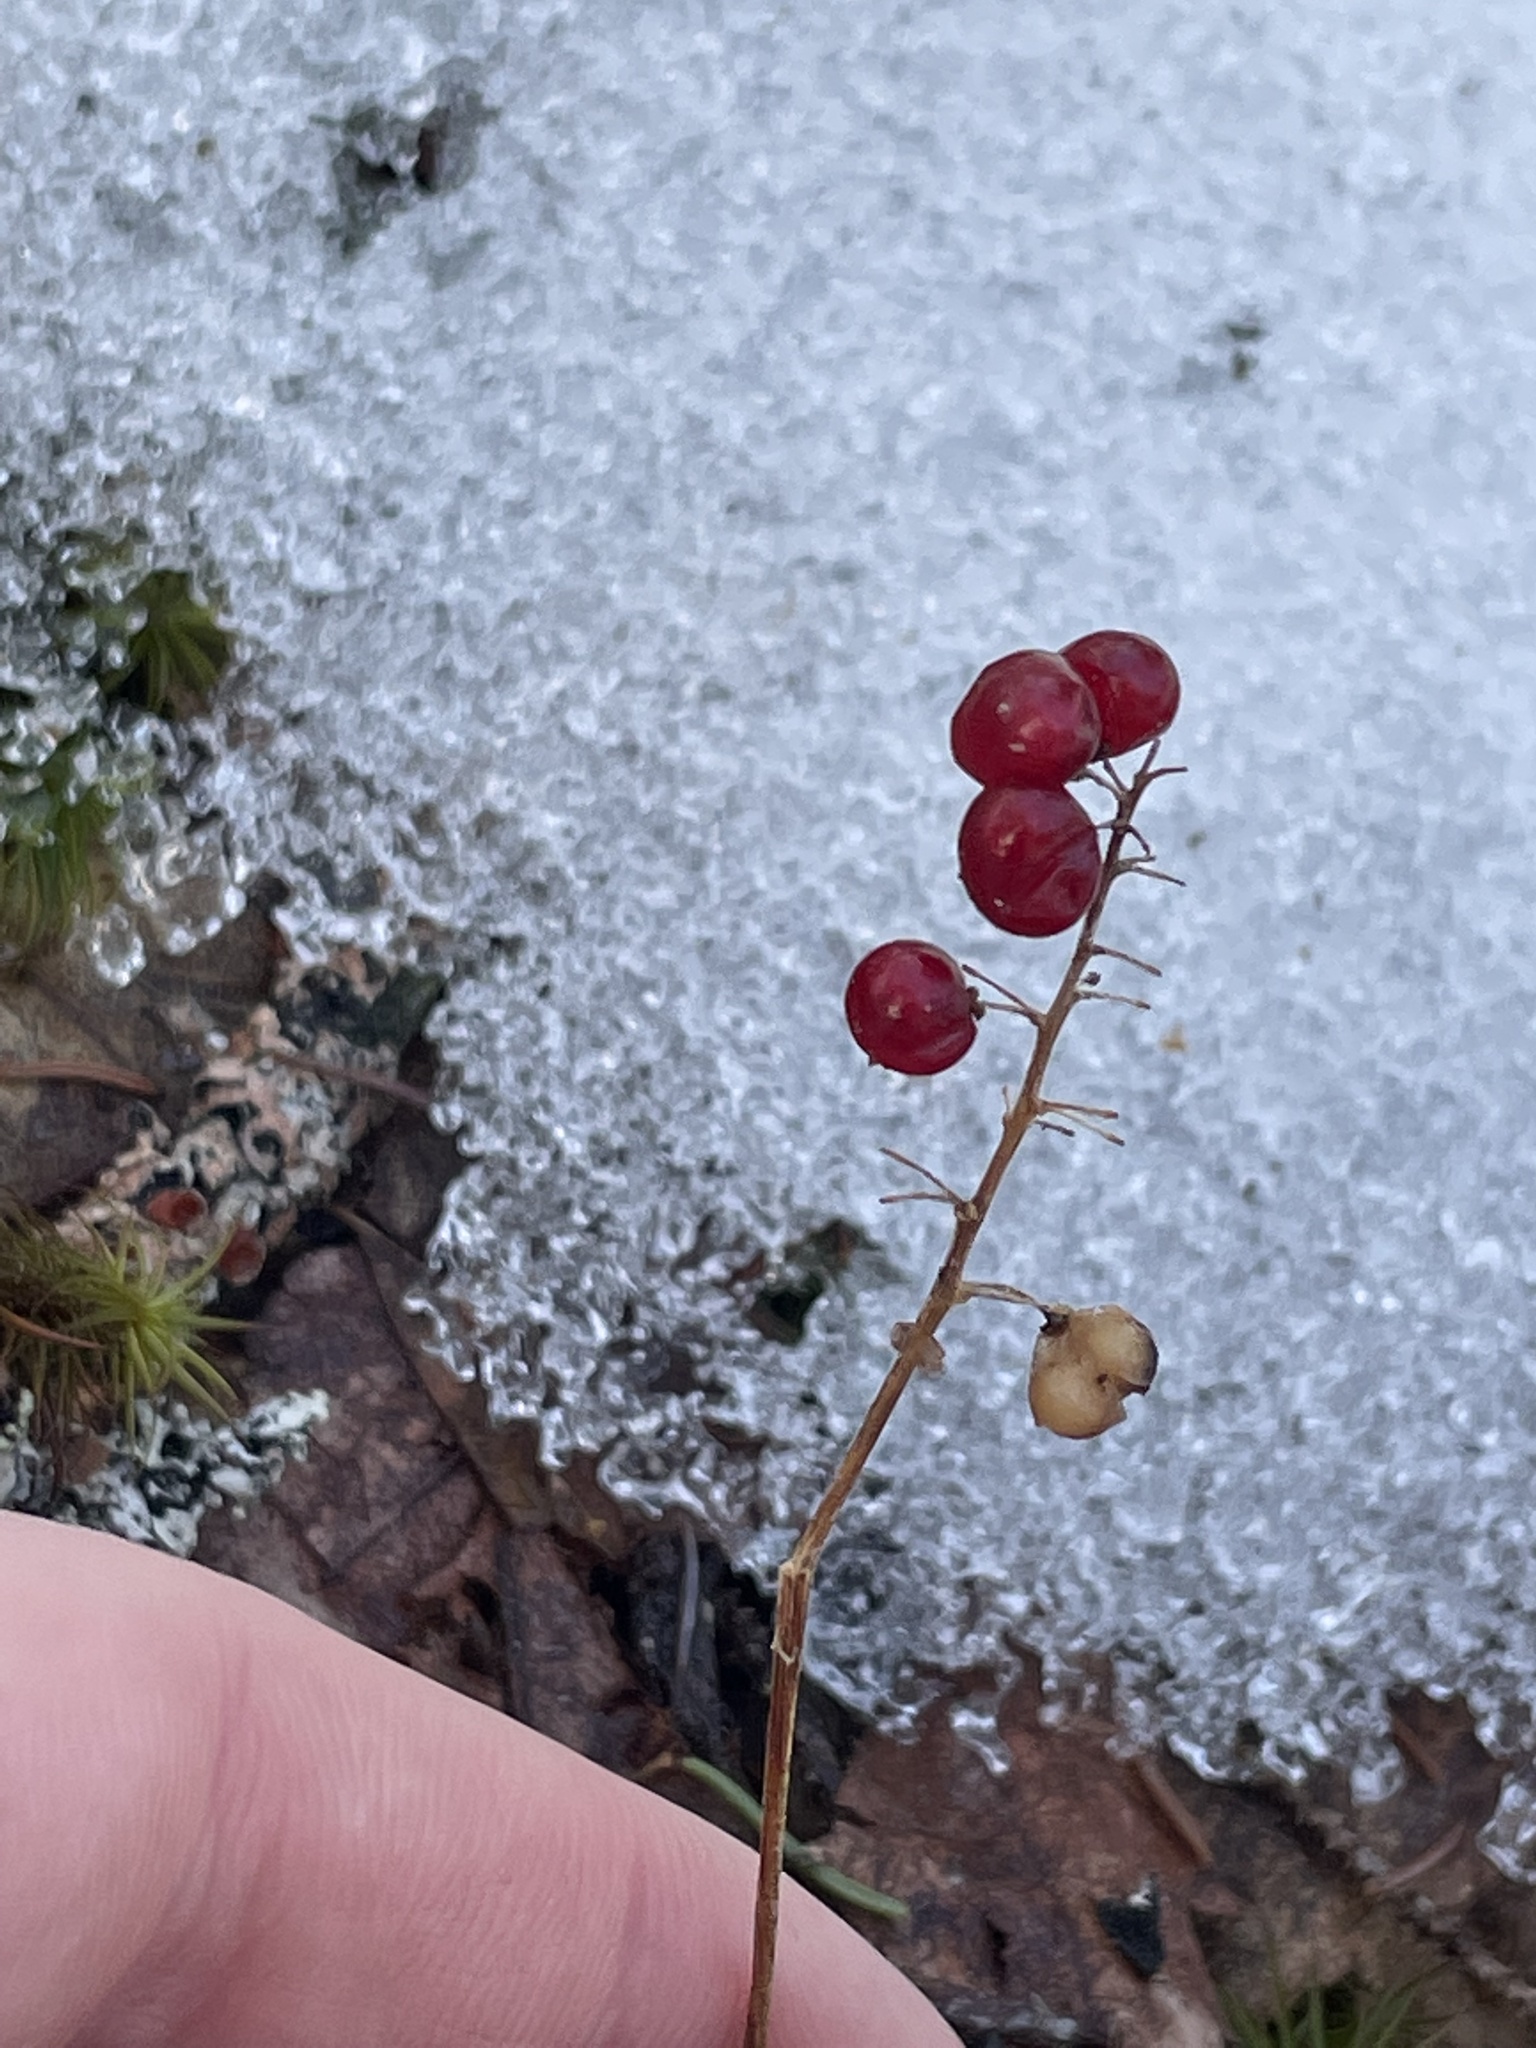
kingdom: Plantae
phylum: Tracheophyta
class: Liliopsida
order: Asparagales
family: Asparagaceae
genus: Maianthemum
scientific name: Maianthemum canadense
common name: False lily-of-the-valley
